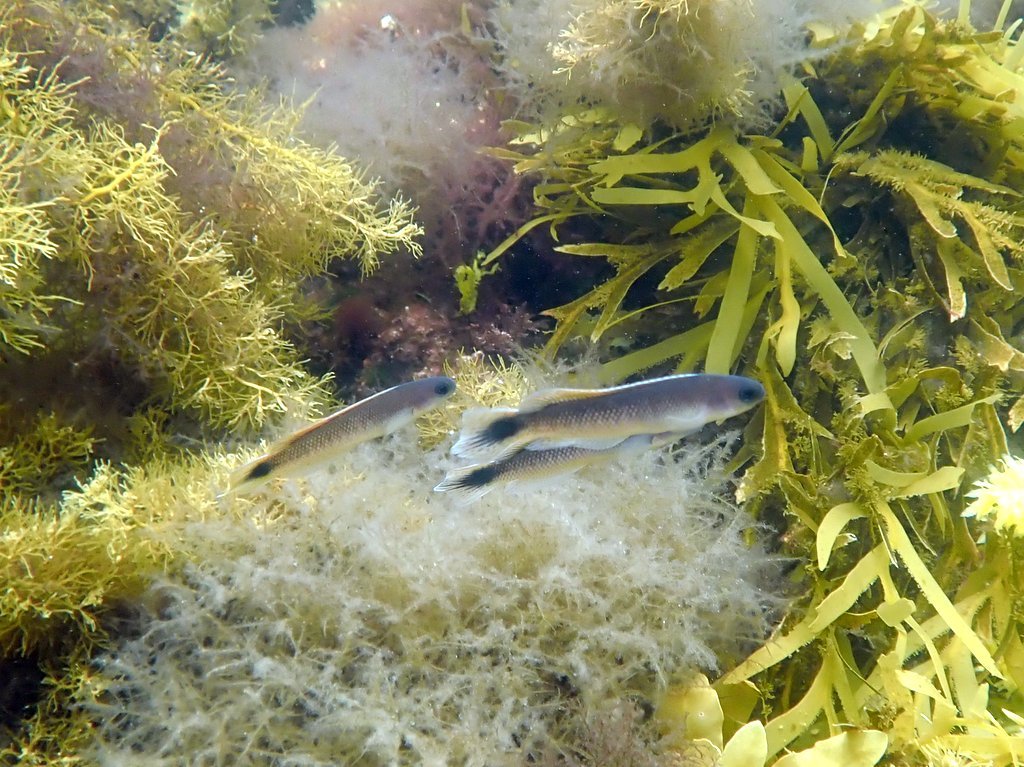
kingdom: Animalia
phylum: Chordata
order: Perciformes
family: Plesiopidae
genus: Trachinops
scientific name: Trachinops caudimaculatus
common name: Blotched-tailed trachinops
